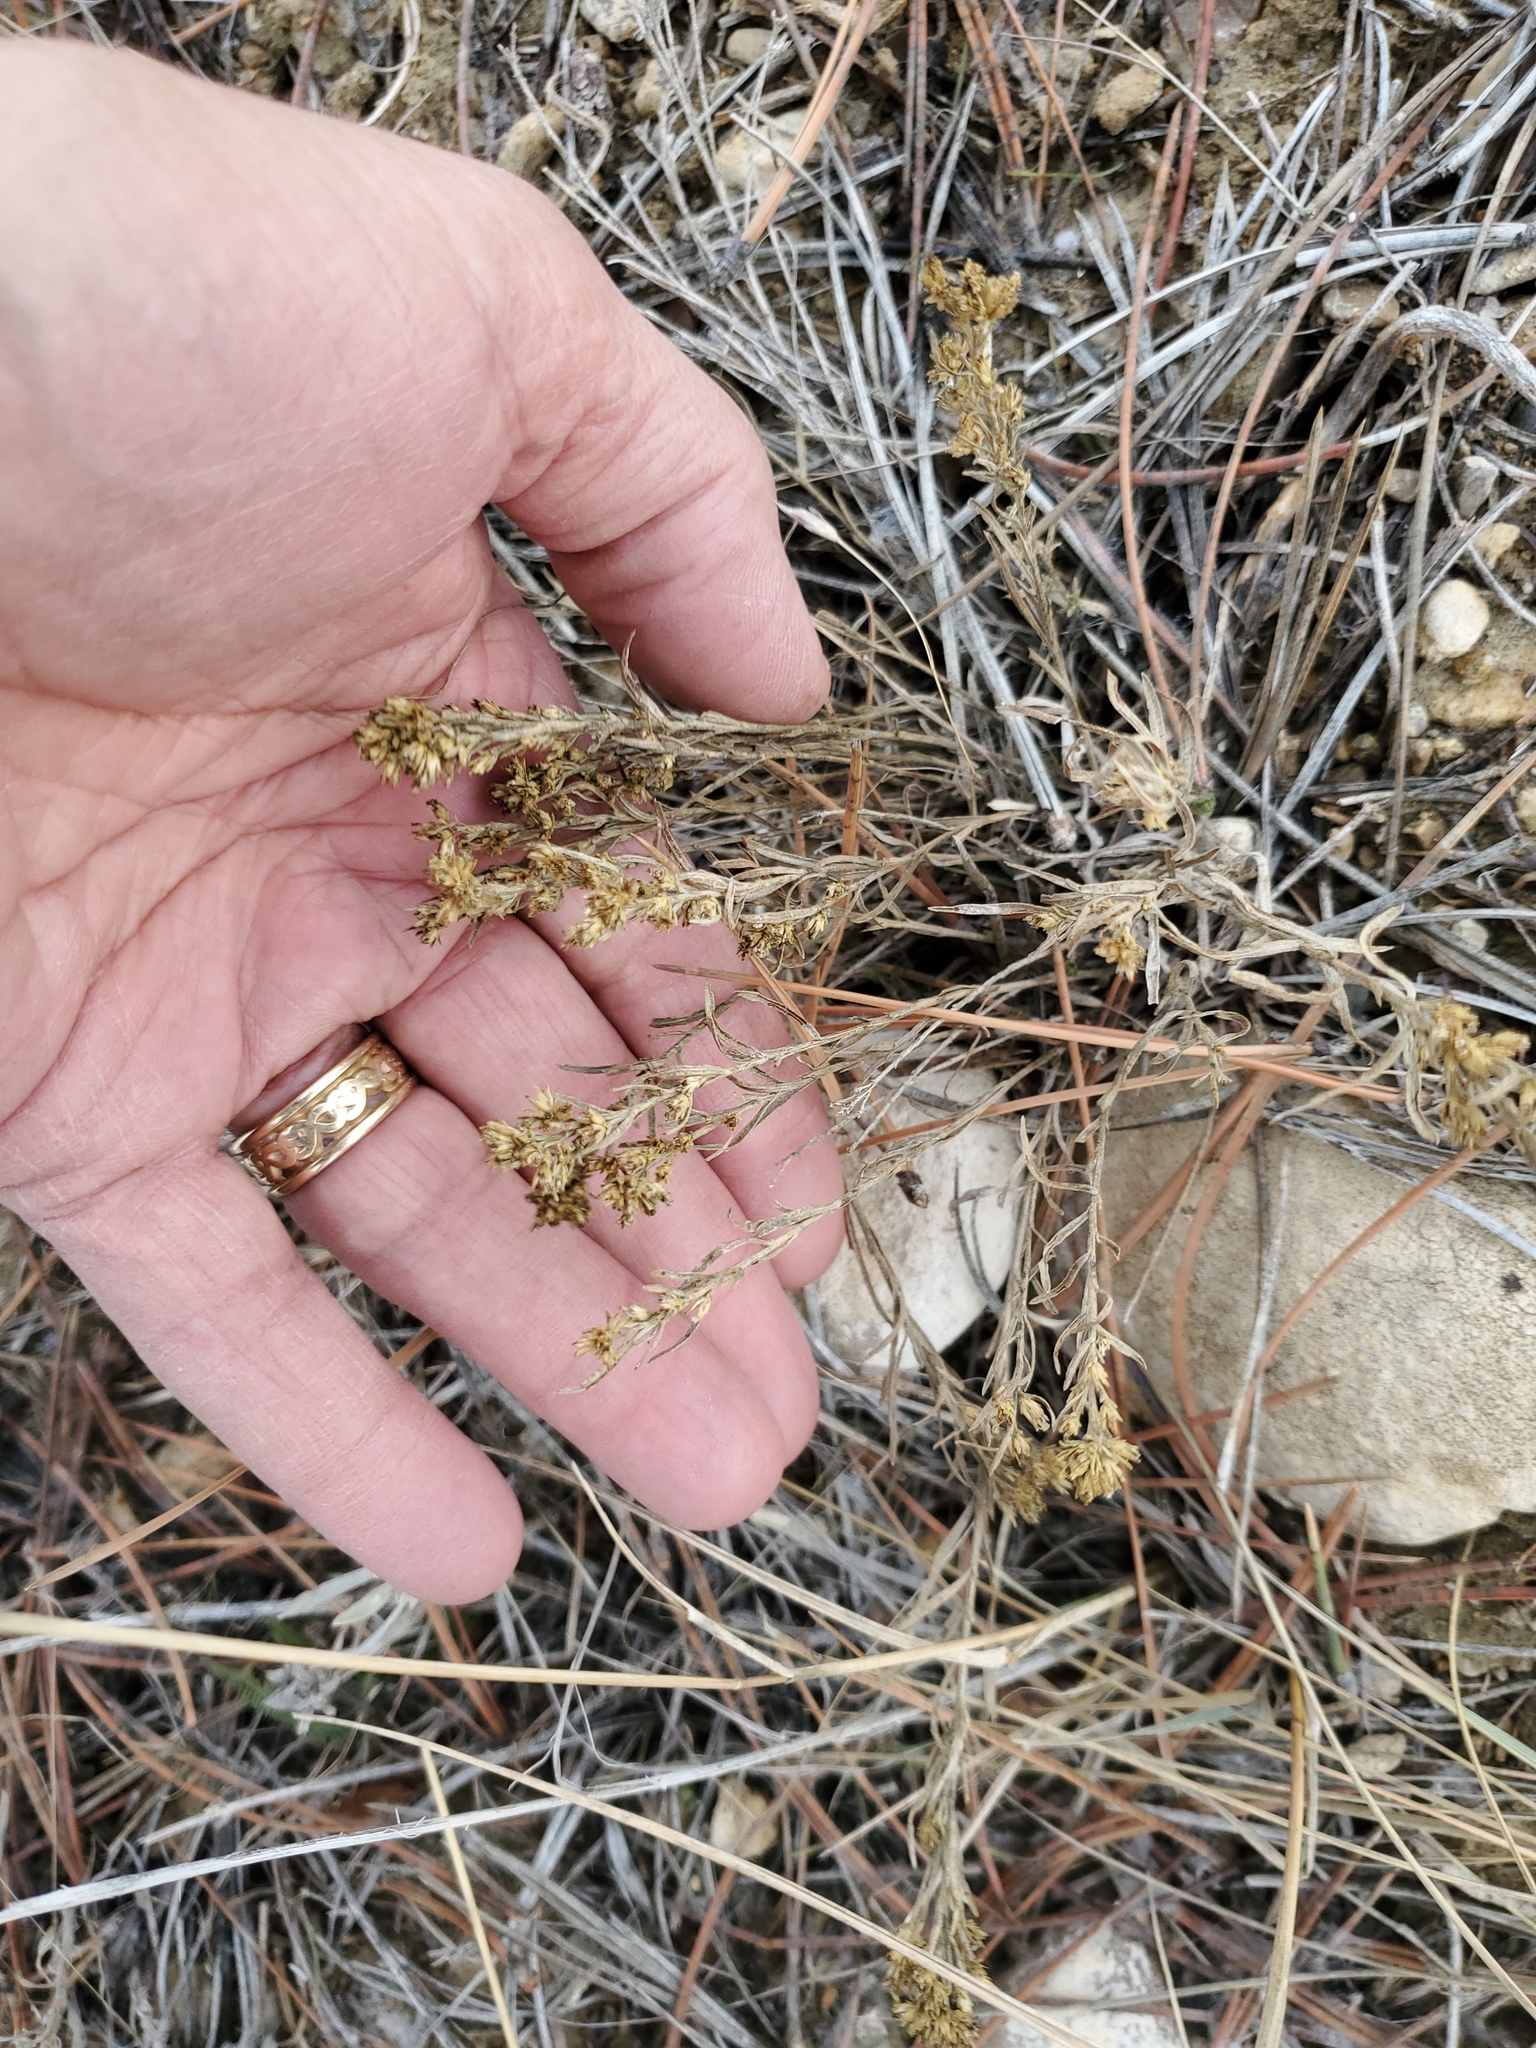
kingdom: Plantae
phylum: Tracheophyta
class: Magnoliopsida
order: Asterales
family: Asteraceae
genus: Gutierrezia
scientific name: Gutierrezia sarothrae
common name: Broom snakeweed
